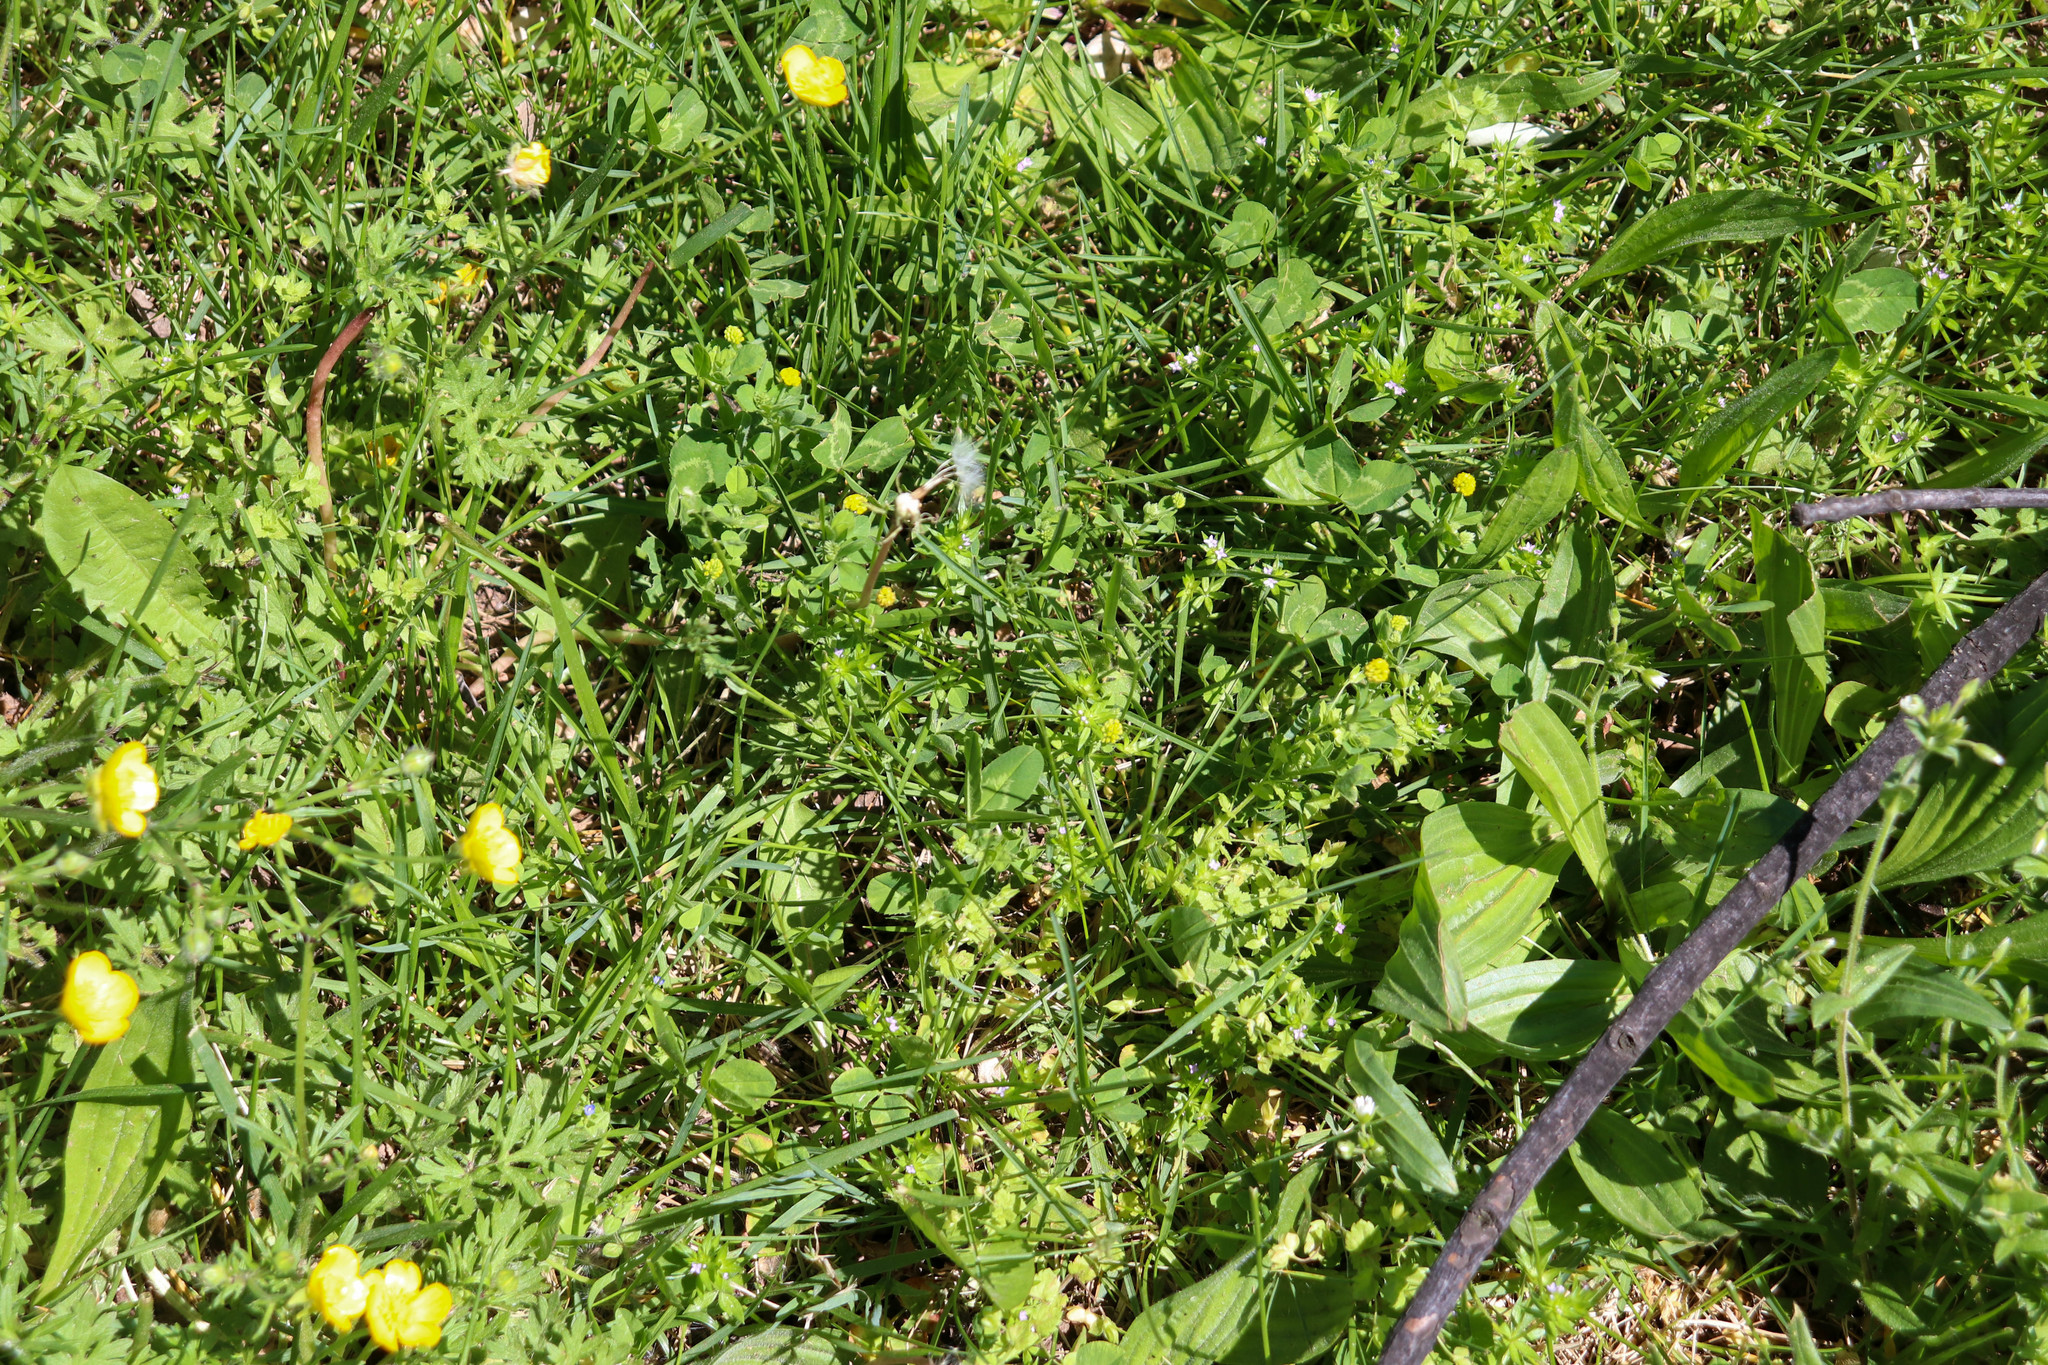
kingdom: Plantae
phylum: Tracheophyta
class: Magnoliopsida
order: Fabales
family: Fabaceae
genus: Medicago
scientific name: Medicago lupulina
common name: Black medick
